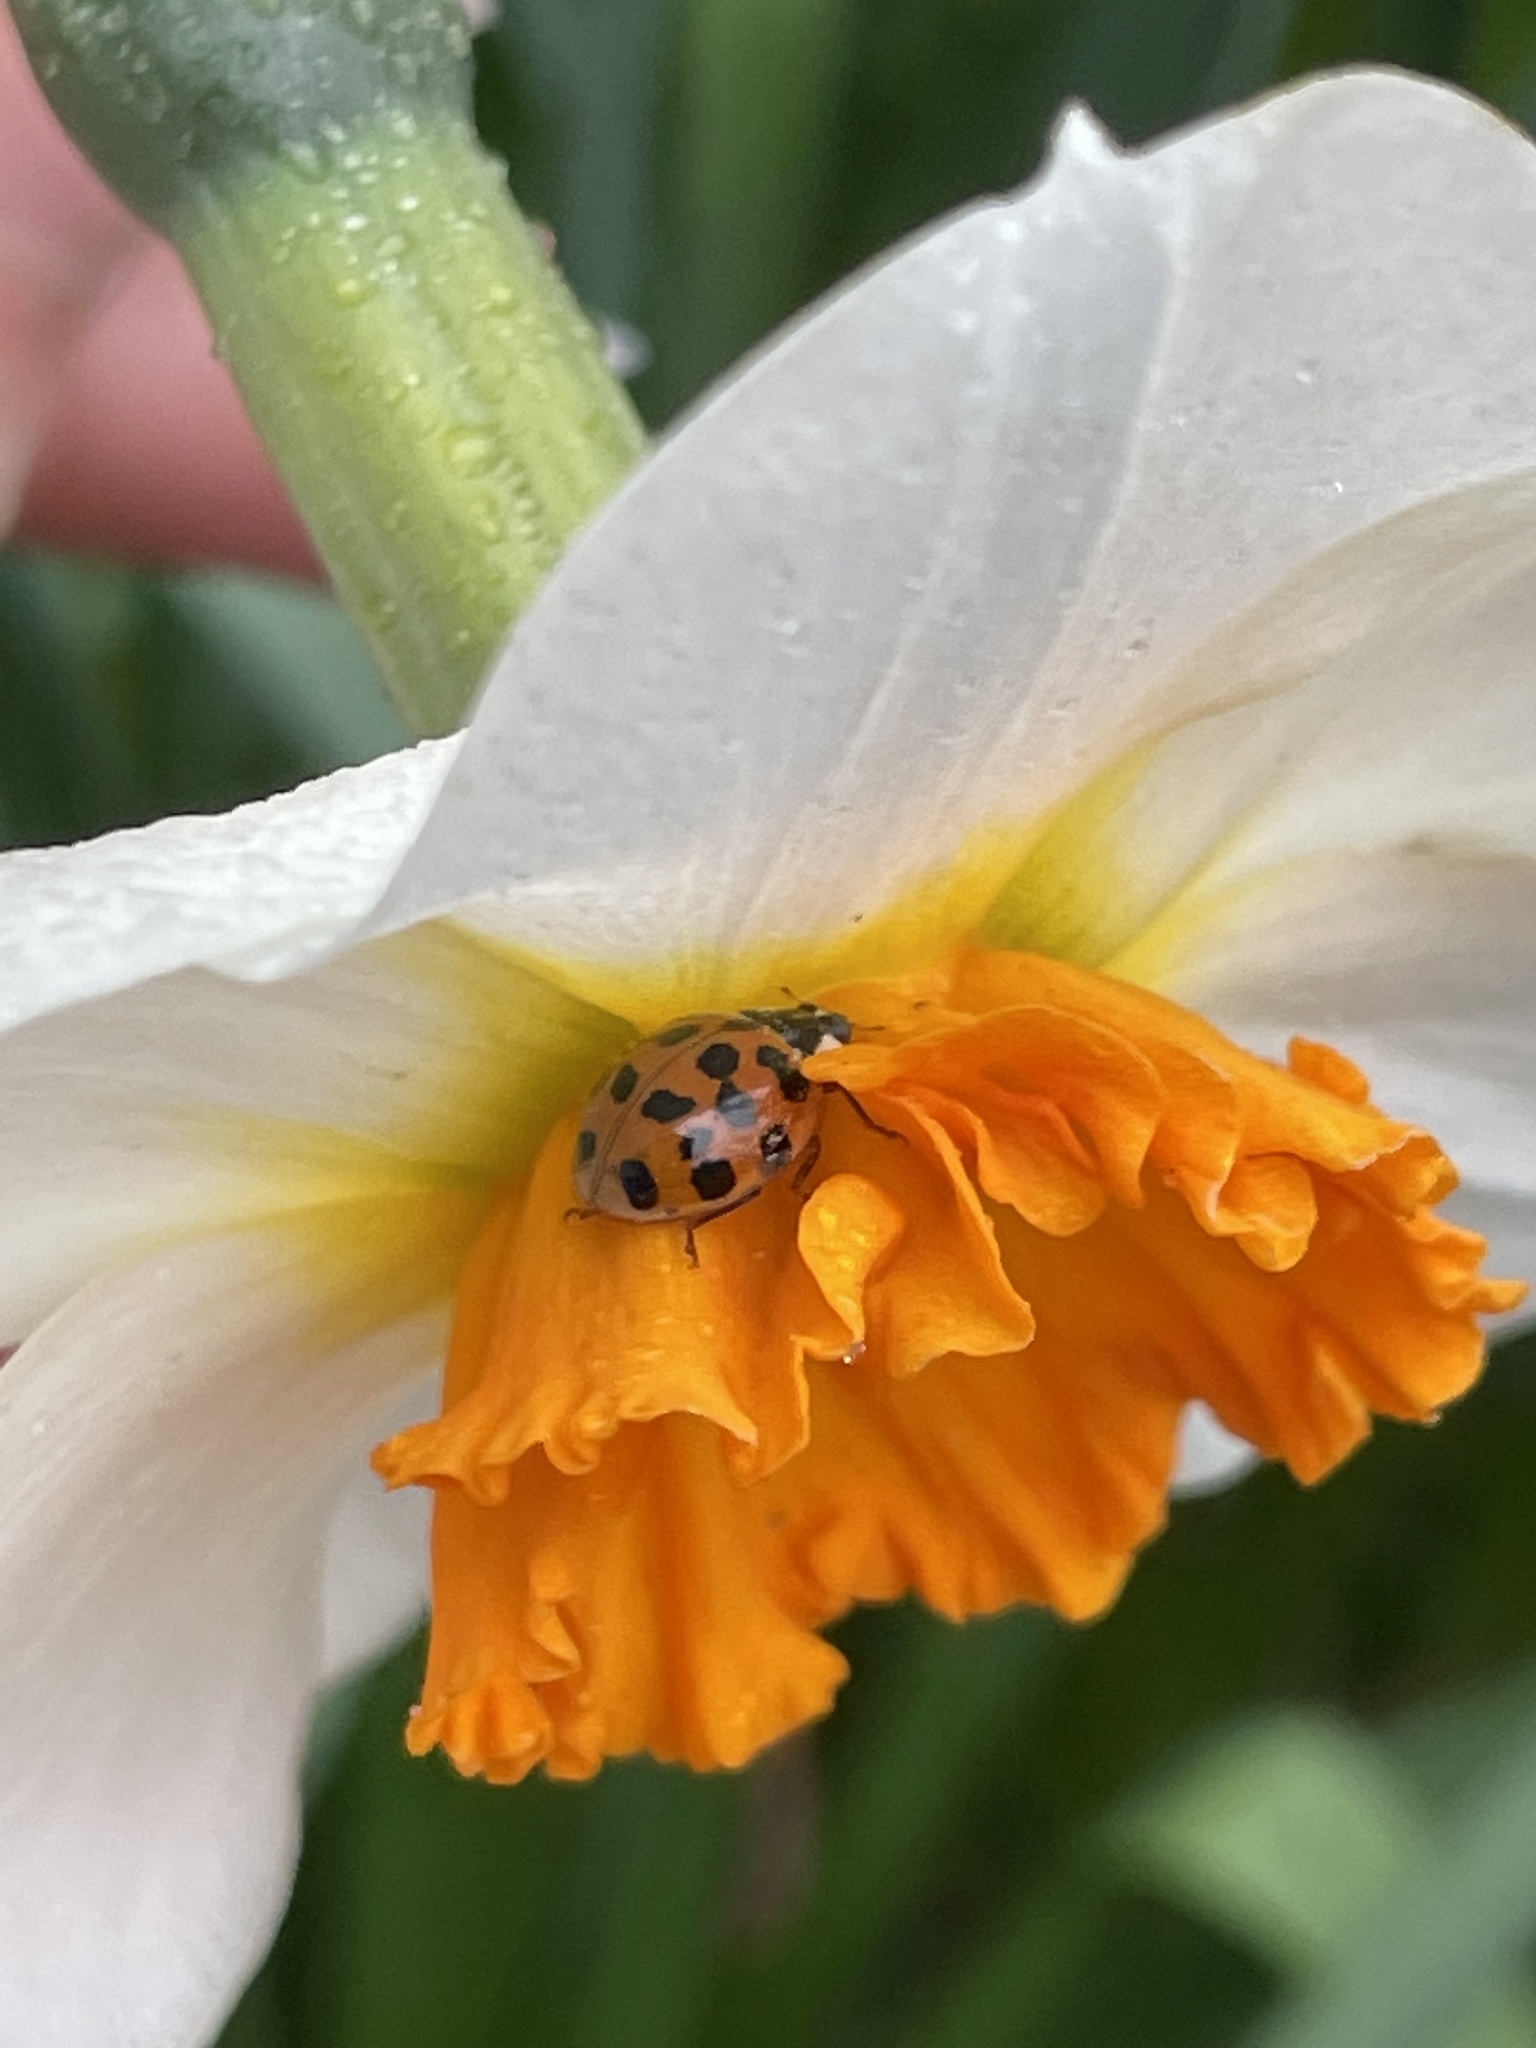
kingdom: Animalia
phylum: Arthropoda
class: Insecta
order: Coleoptera
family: Coccinellidae
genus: Harmonia
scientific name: Harmonia axyridis
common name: Harlequin ladybird
